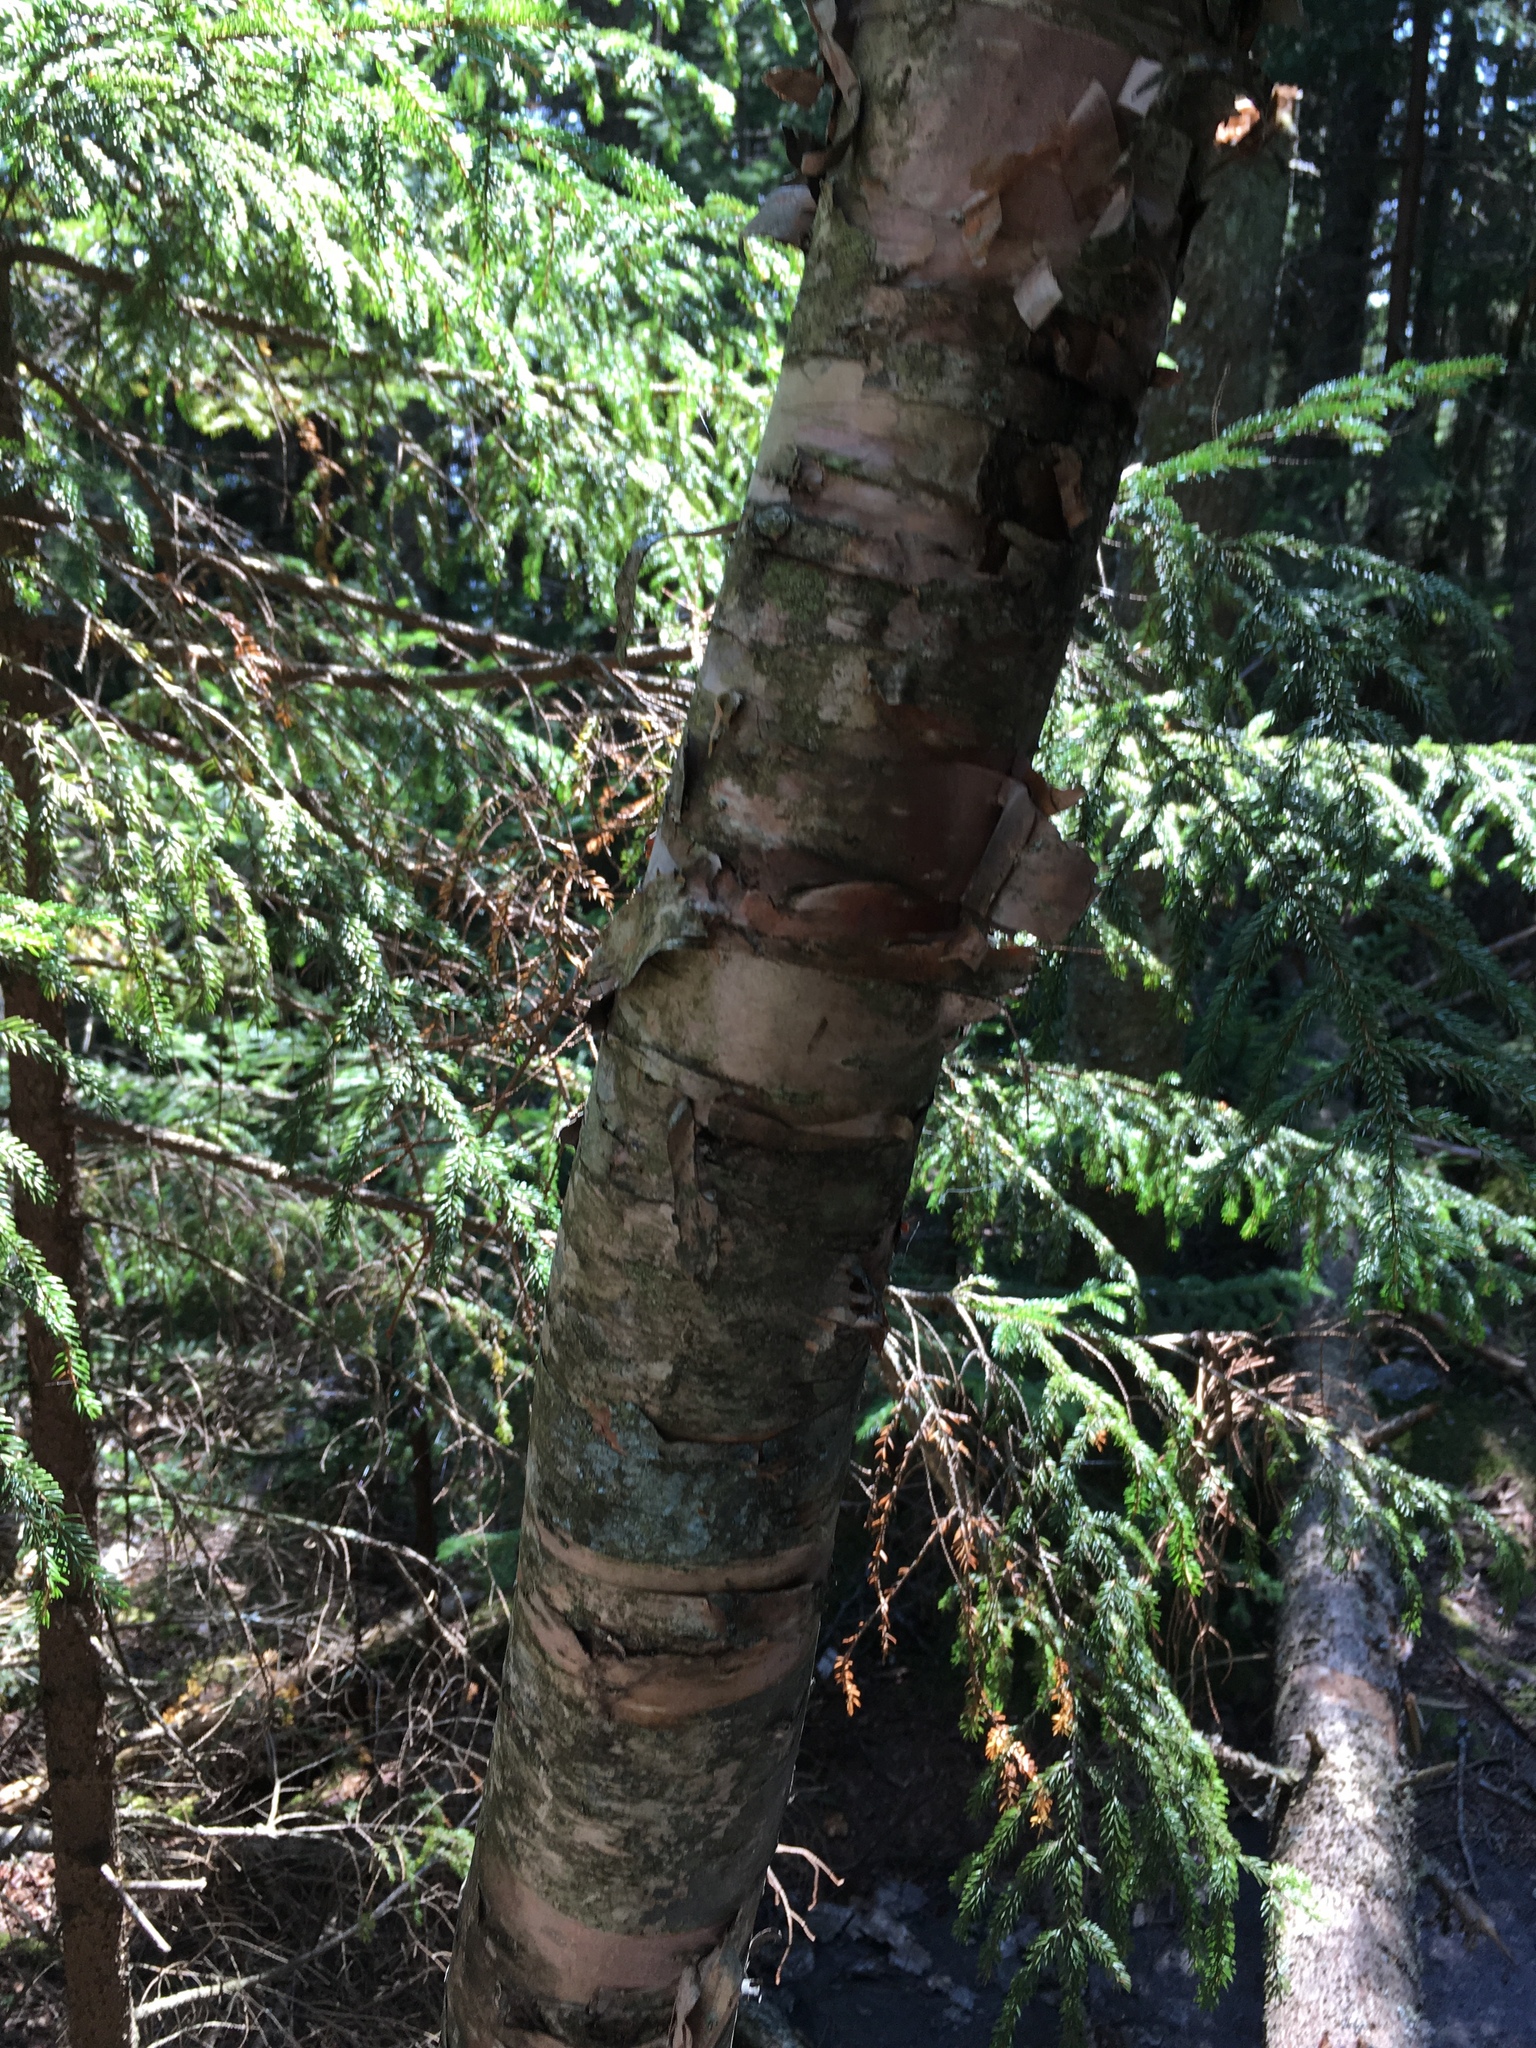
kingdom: Plantae
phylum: Tracheophyta
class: Magnoliopsida
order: Fagales
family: Betulaceae
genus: Betula
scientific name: Betula cordifolia
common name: Mountain white birch
